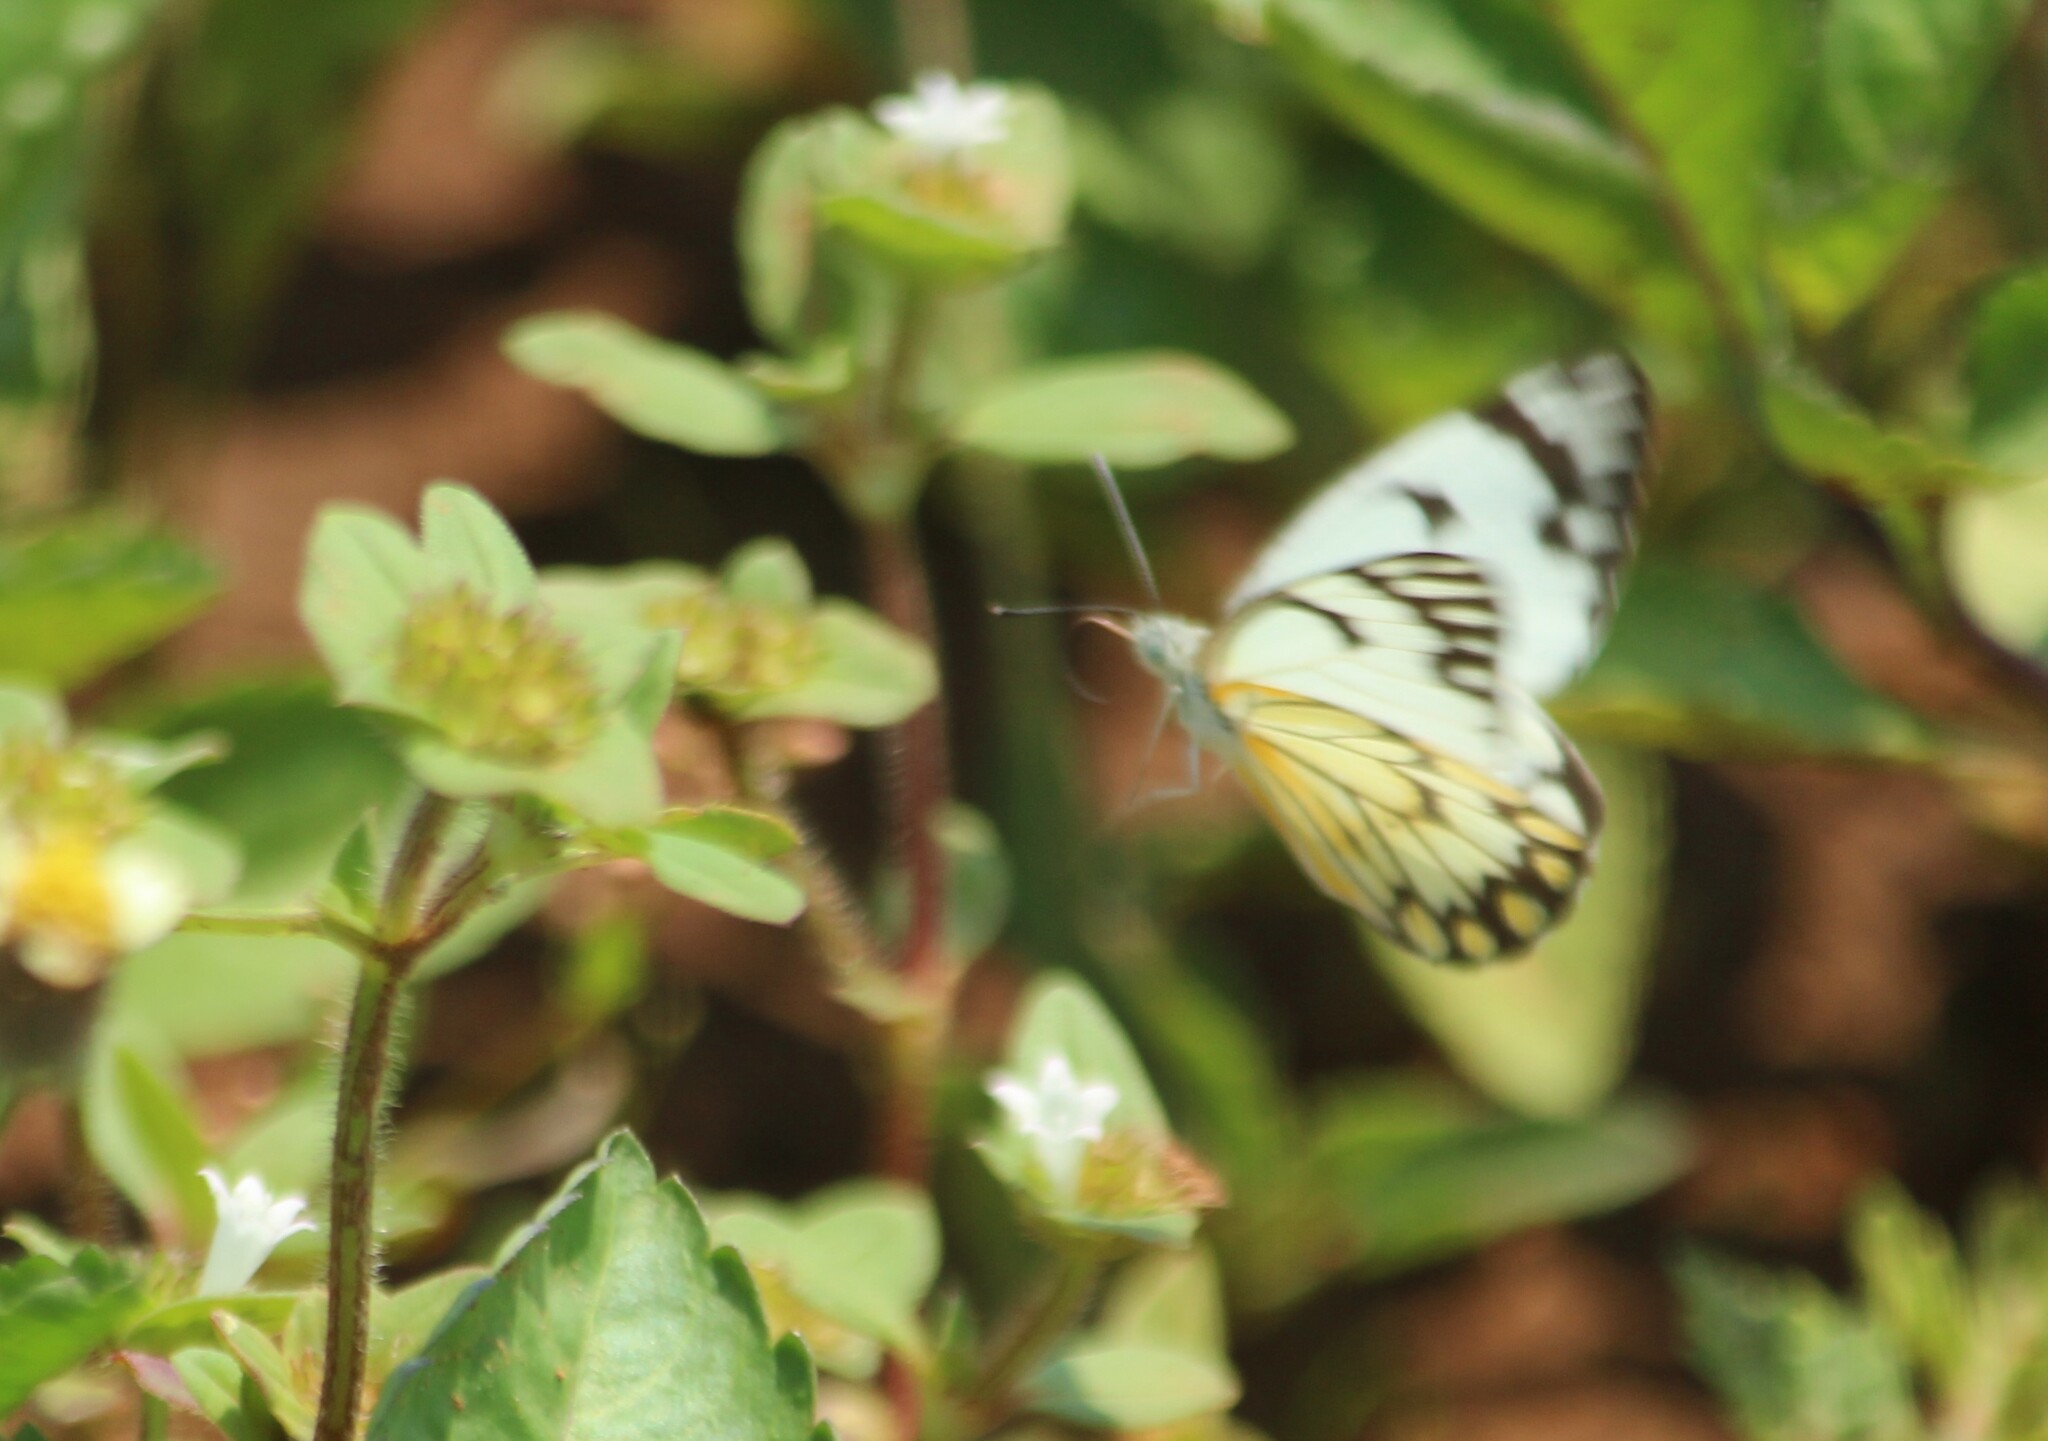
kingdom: Animalia
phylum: Arthropoda
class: Insecta
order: Lepidoptera
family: Pieridae
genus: Belenois
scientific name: Belenois aurota
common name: Brown-veined white
